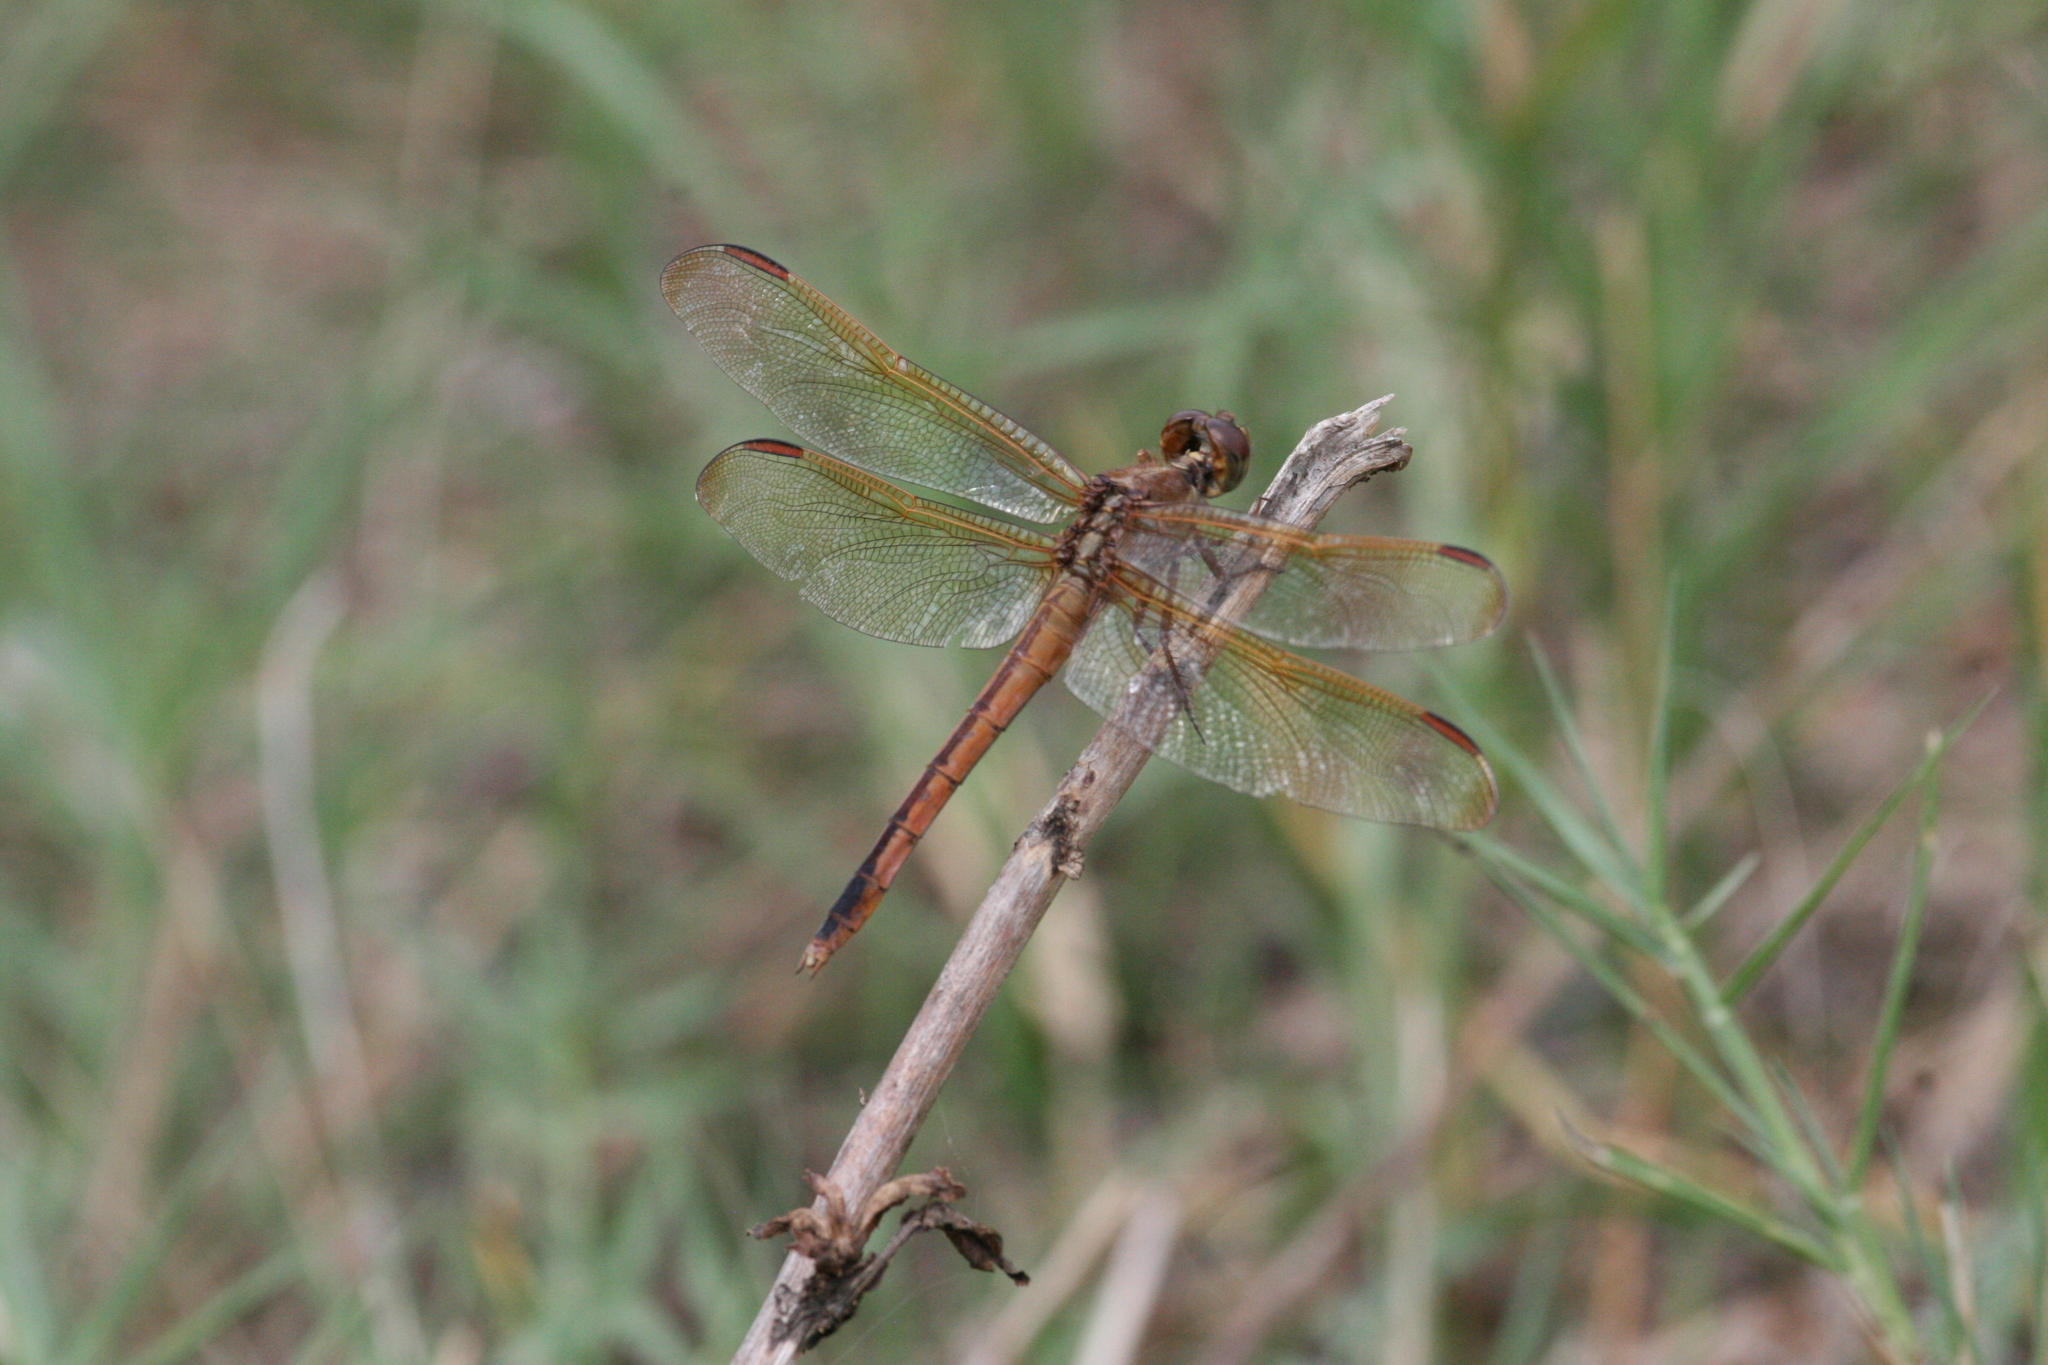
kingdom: Animalia
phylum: Arthropoda
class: Insecta
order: Odonata
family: Libellulidae
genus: Libellula
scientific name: Libellula needhami
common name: Needham's skimmer
